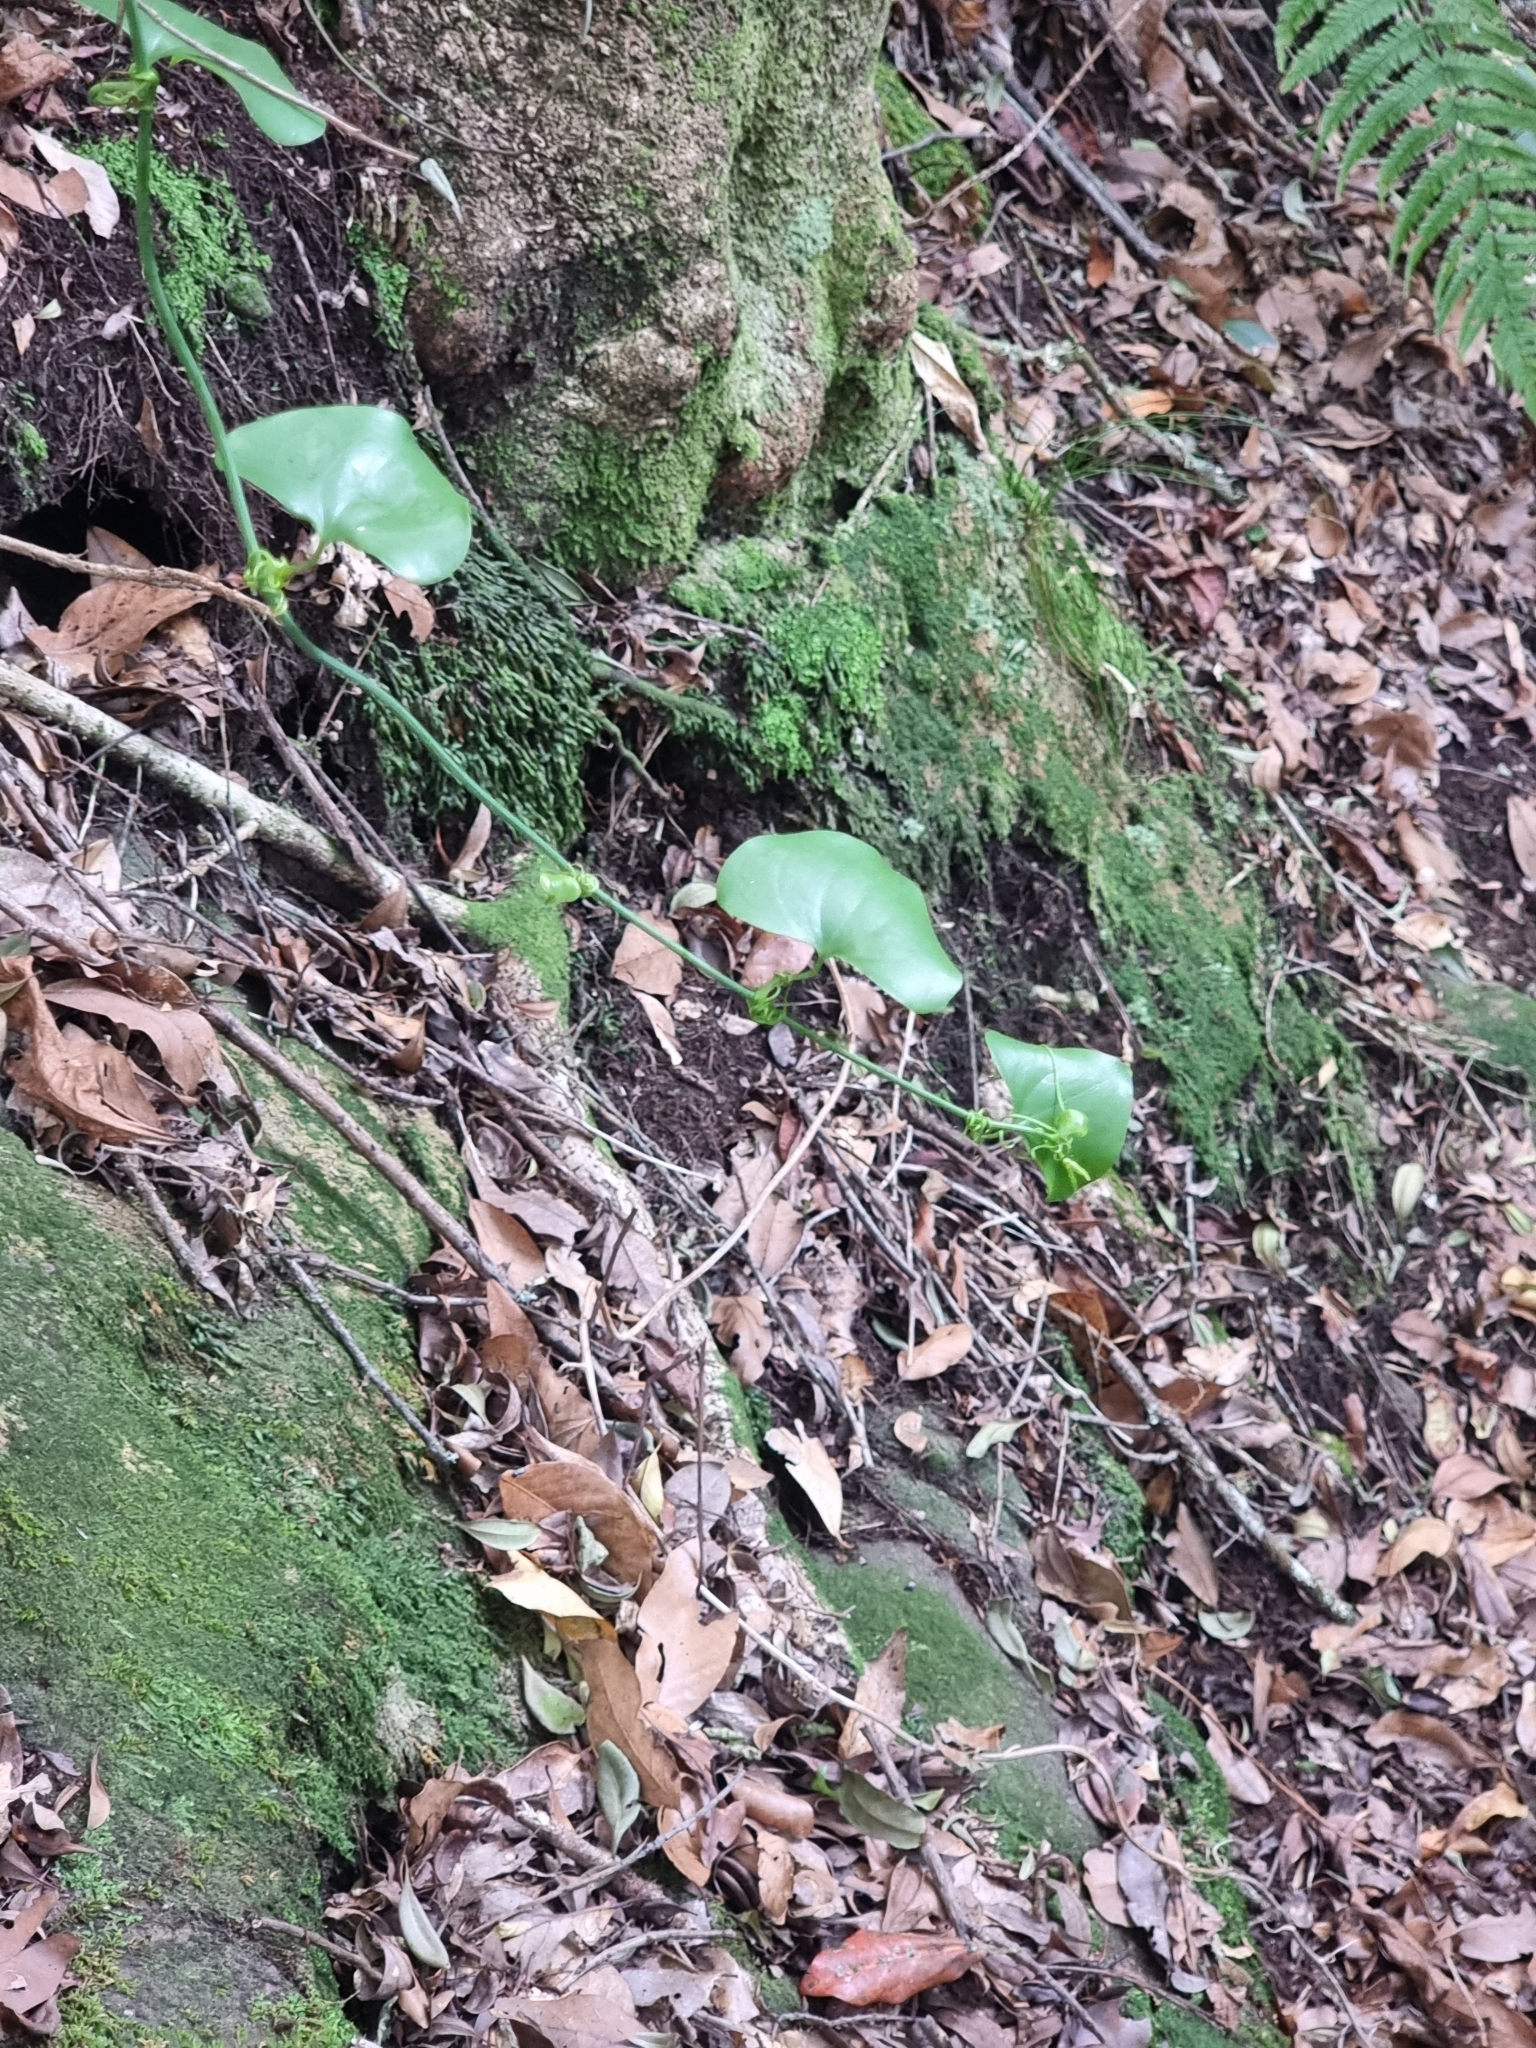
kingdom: Plantae
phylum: Tracheophyta
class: Liliopsida
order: Liliales
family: Smilacaceae
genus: Smilax
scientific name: Smilax aspera
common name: Common smilax
